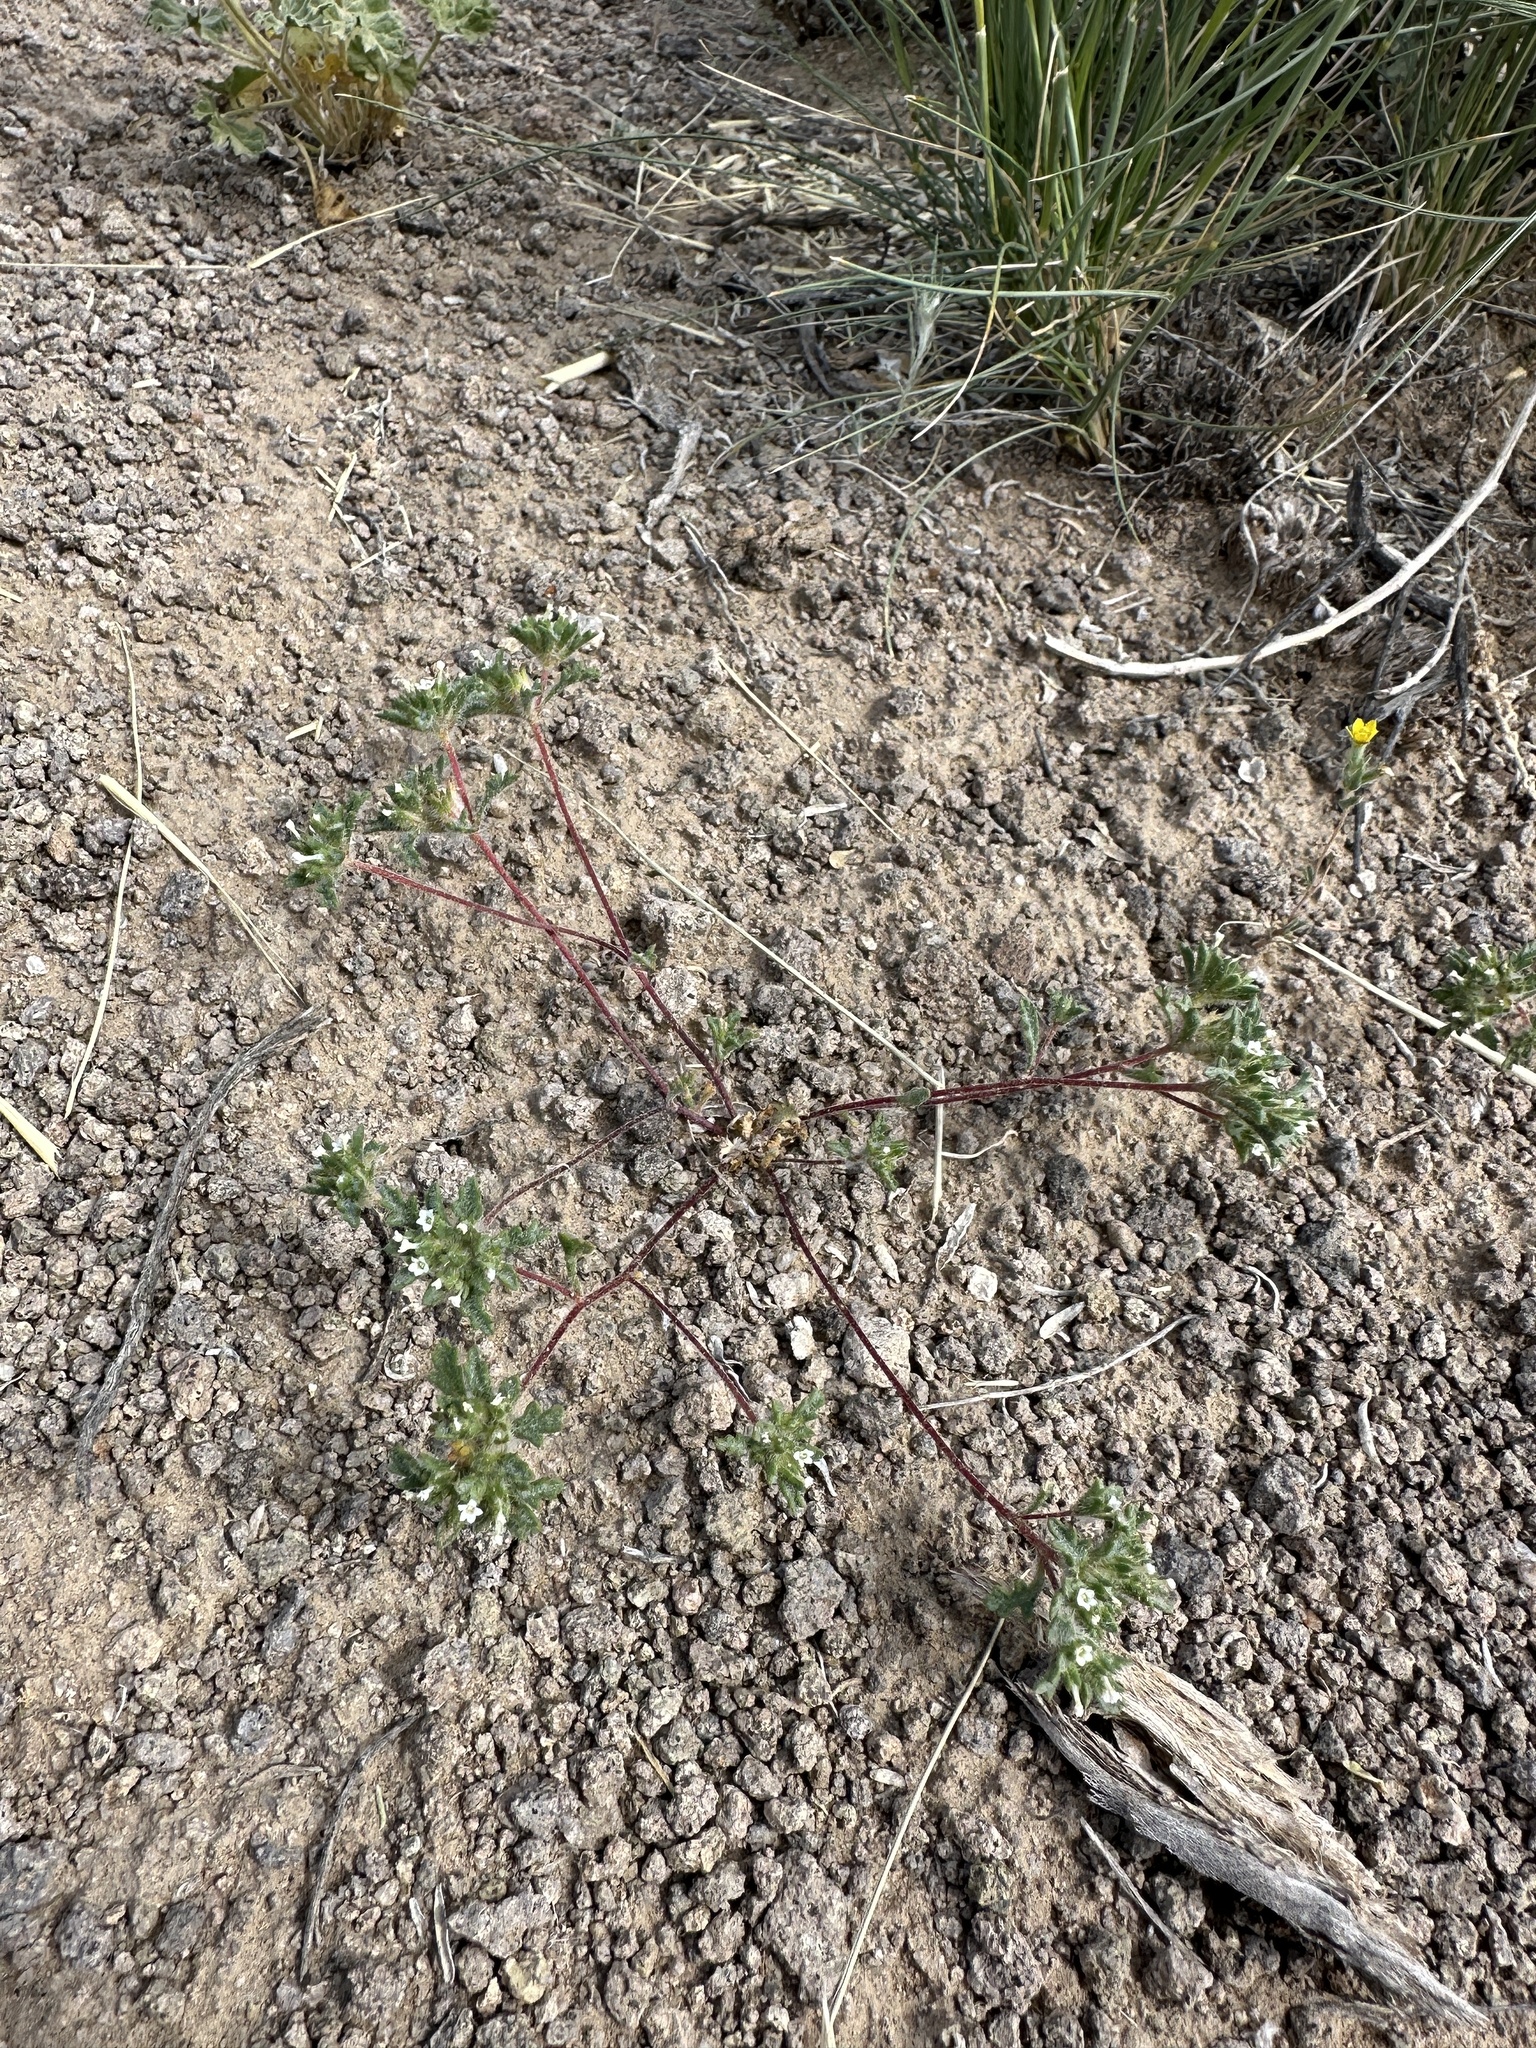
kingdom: Plantae
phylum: Tracheophyta
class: Magnoliopsida
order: Ericales
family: Polemoniaceae
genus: Ipomopsis
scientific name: Ipomopsis polycladon
